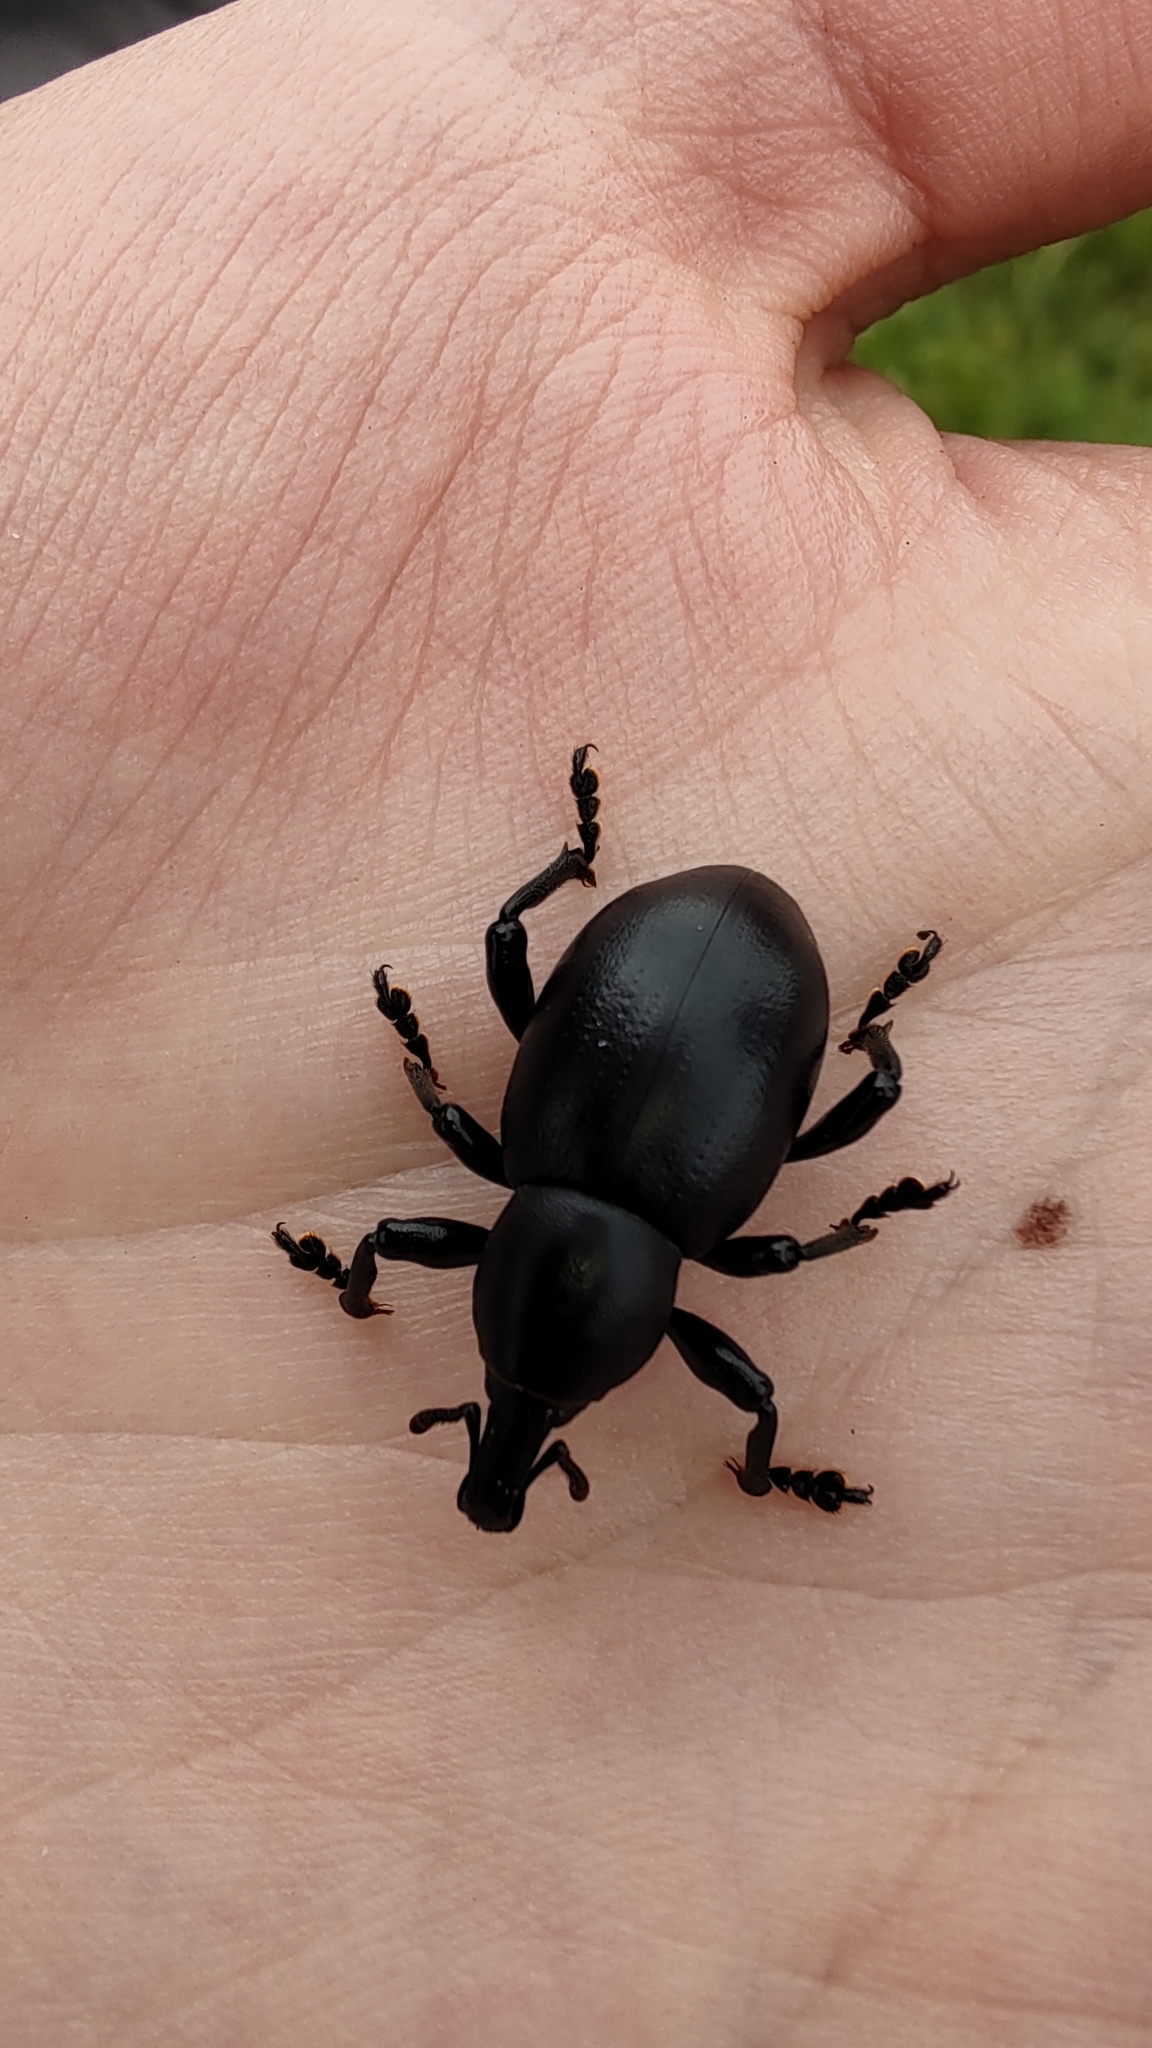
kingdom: Animalia
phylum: Arthropoda
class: Insecta
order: Coleoptera
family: Curculionidae
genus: Liparus
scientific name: Liparus dirus
